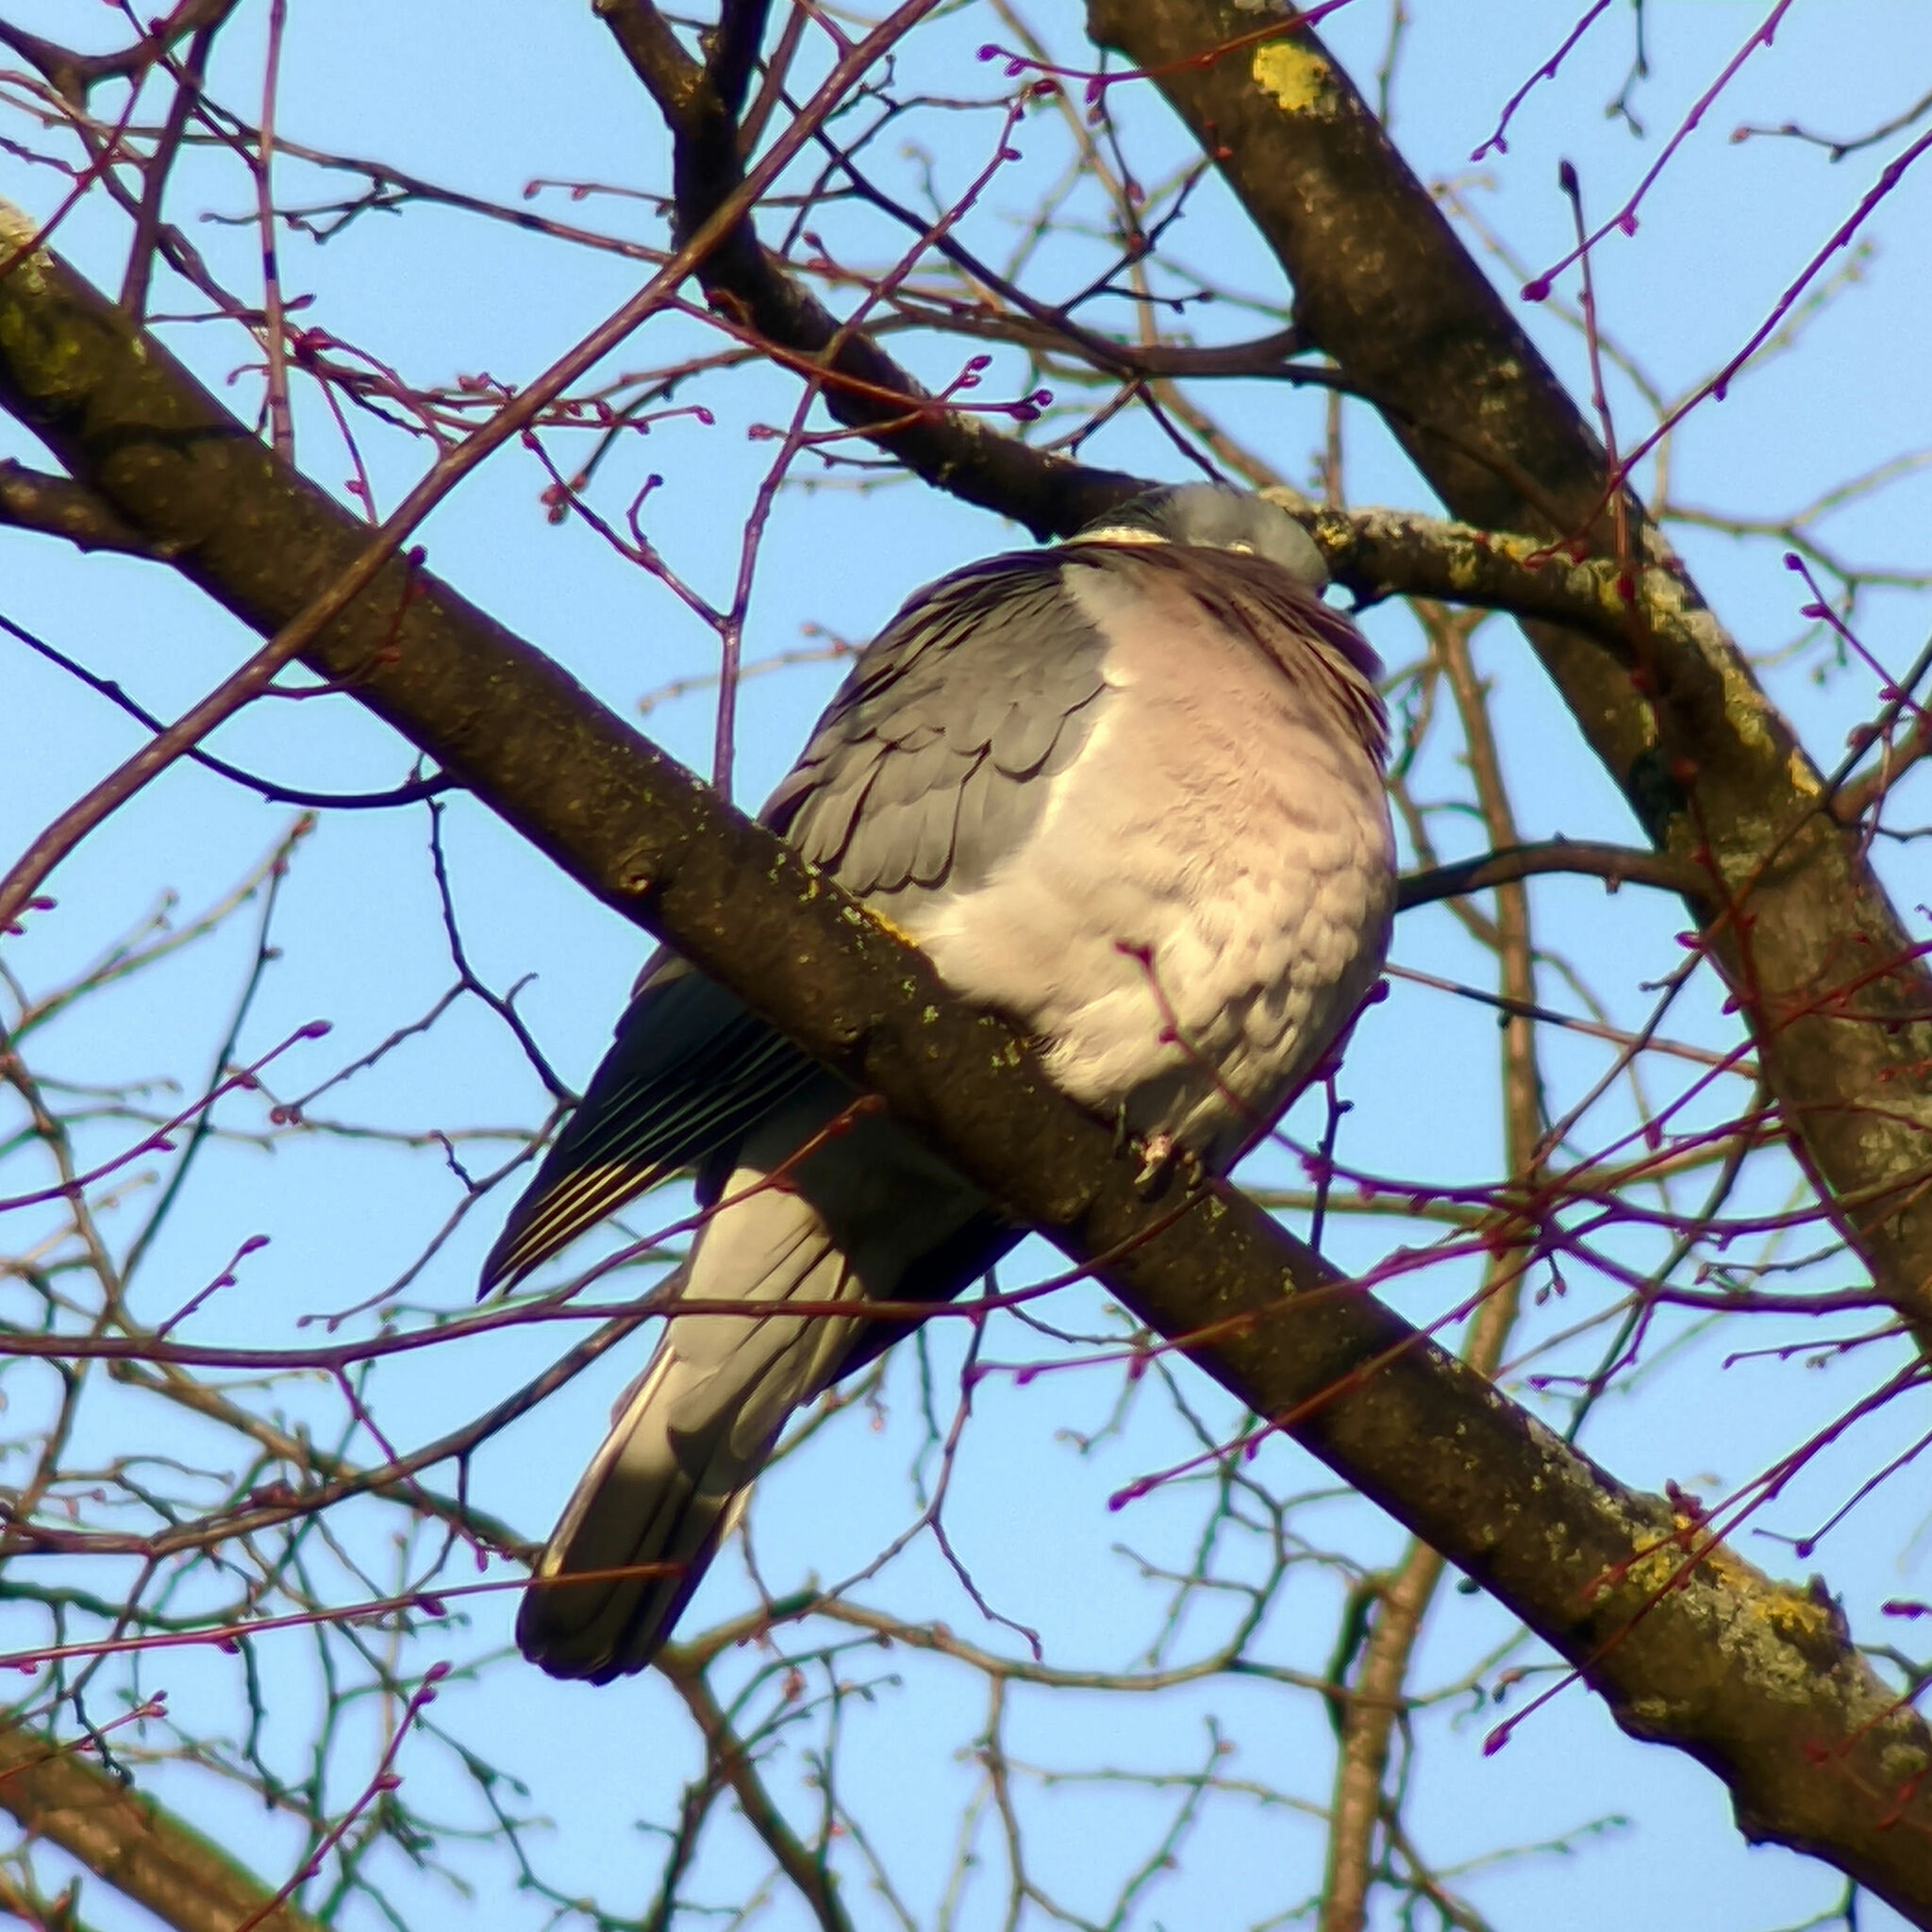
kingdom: Animalia
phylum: Chordata
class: Aves
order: Columbiformes
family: Columbidae
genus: Columba
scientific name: Columba palumbus
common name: Common wood pigeon
